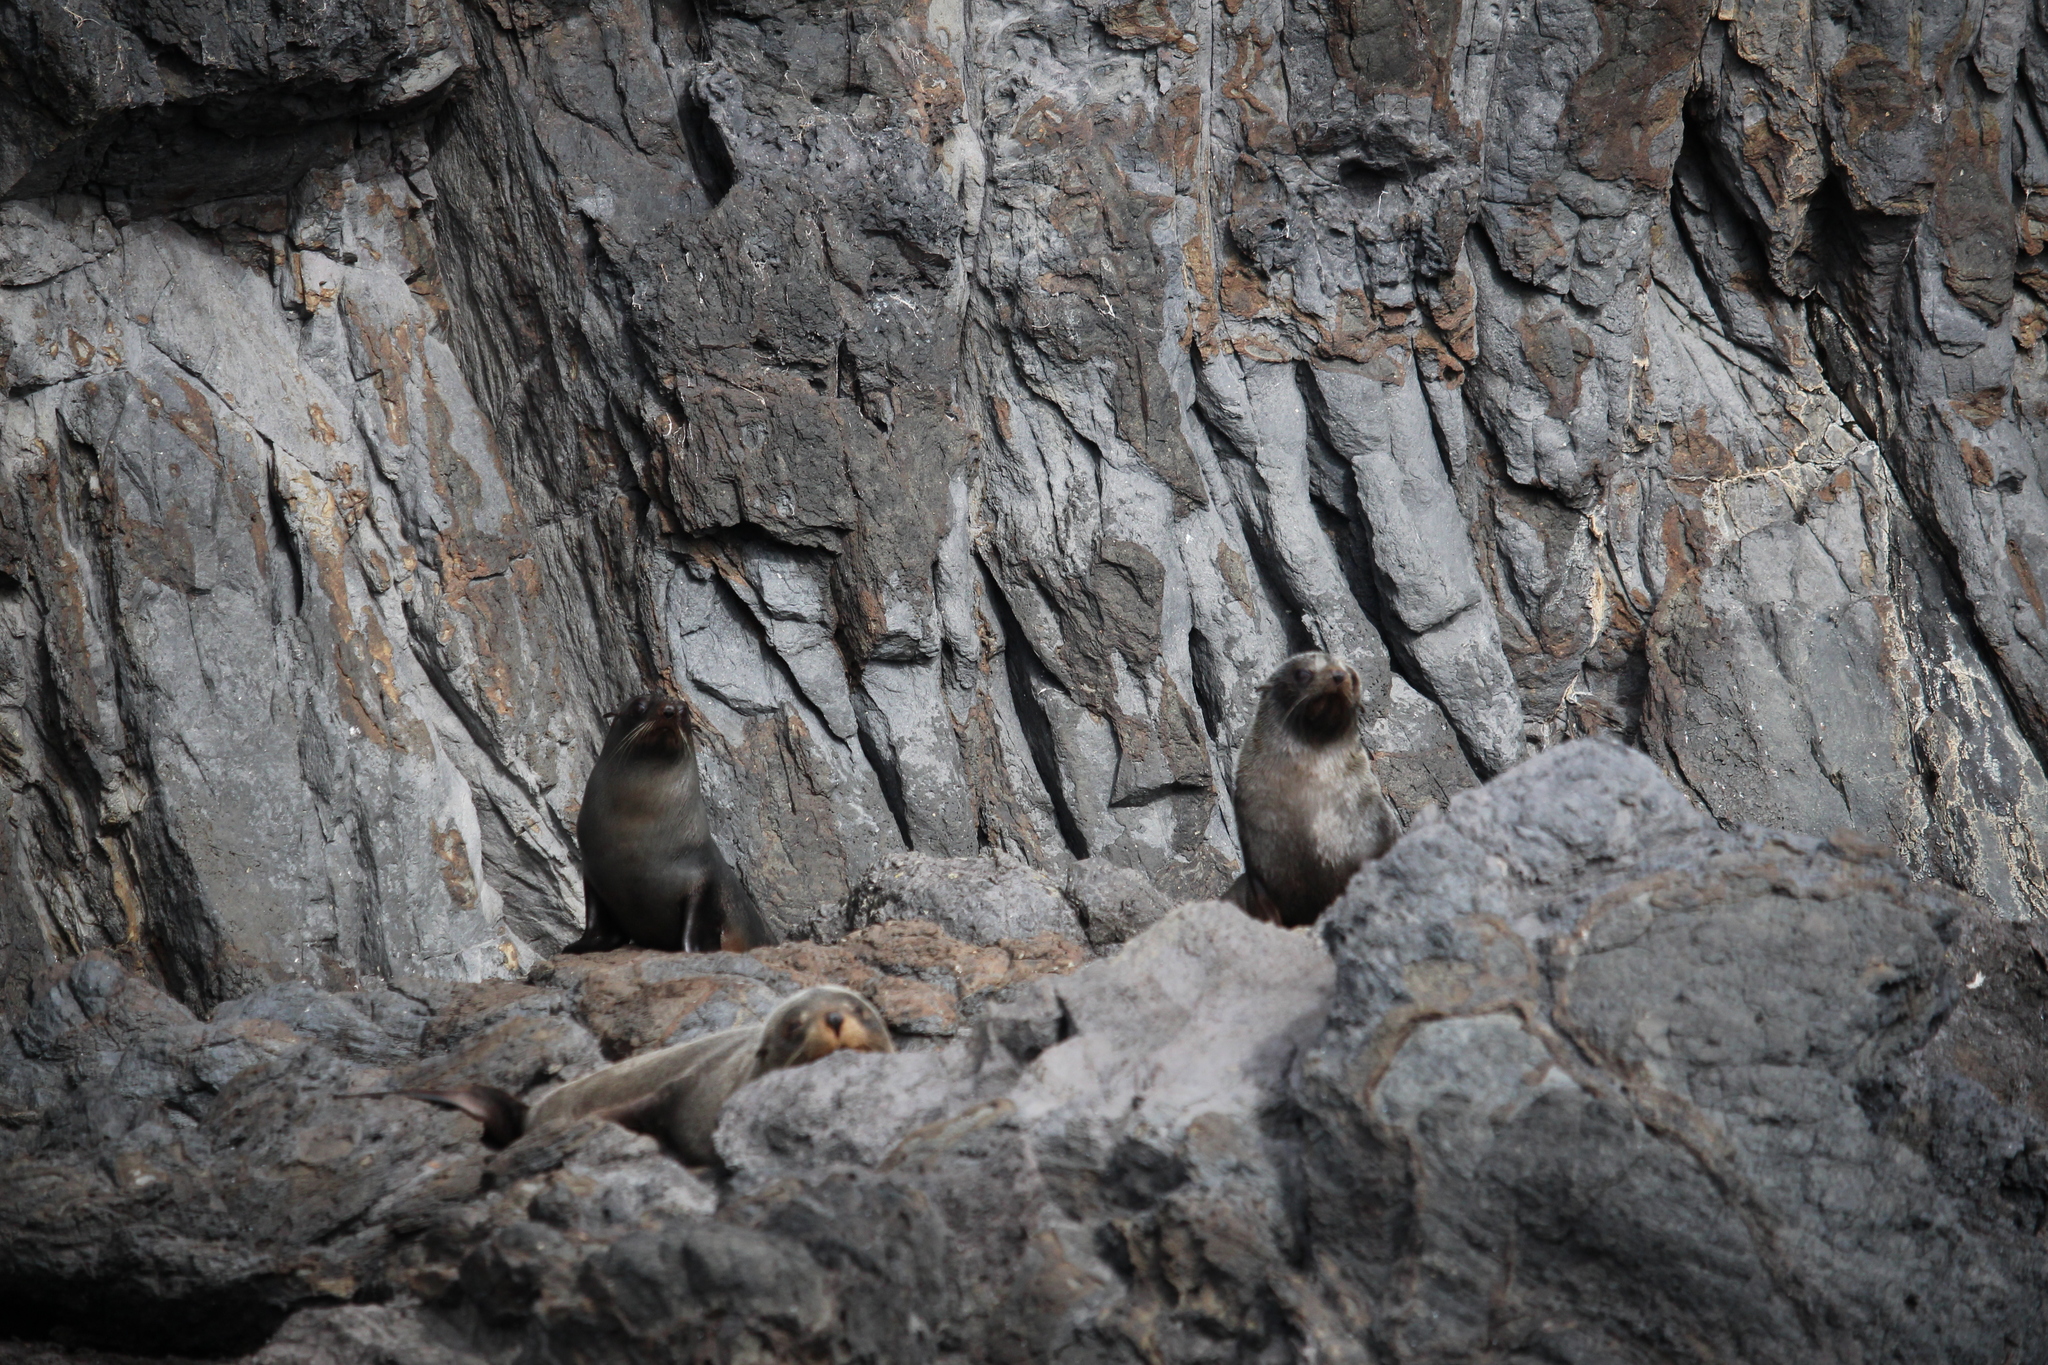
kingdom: Animalia
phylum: Chordata
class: Mammalia
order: Carnivora
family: Otariidae
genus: Arctocephalus
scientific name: Arctocephalus forsteri
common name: New zealand fur seal
